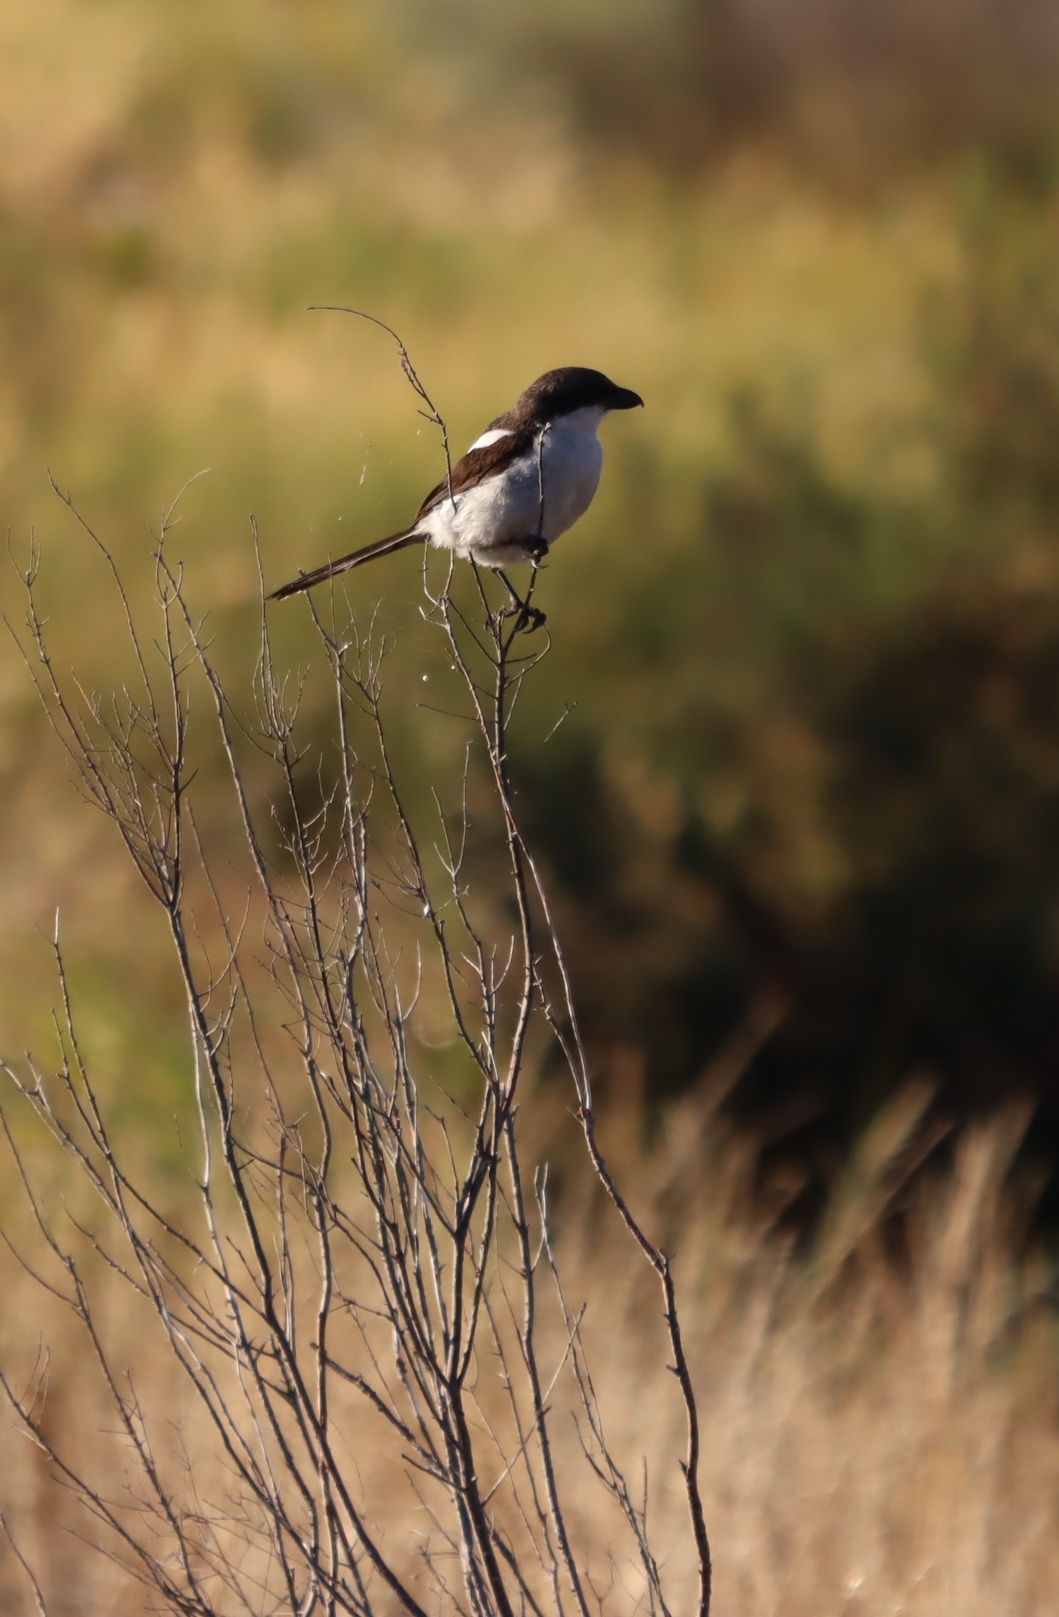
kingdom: Animalia
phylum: Chordata
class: Aves
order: Passeriformes
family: Laniidae
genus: Lanius
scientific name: Lanius collaris
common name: Southern fiscal
